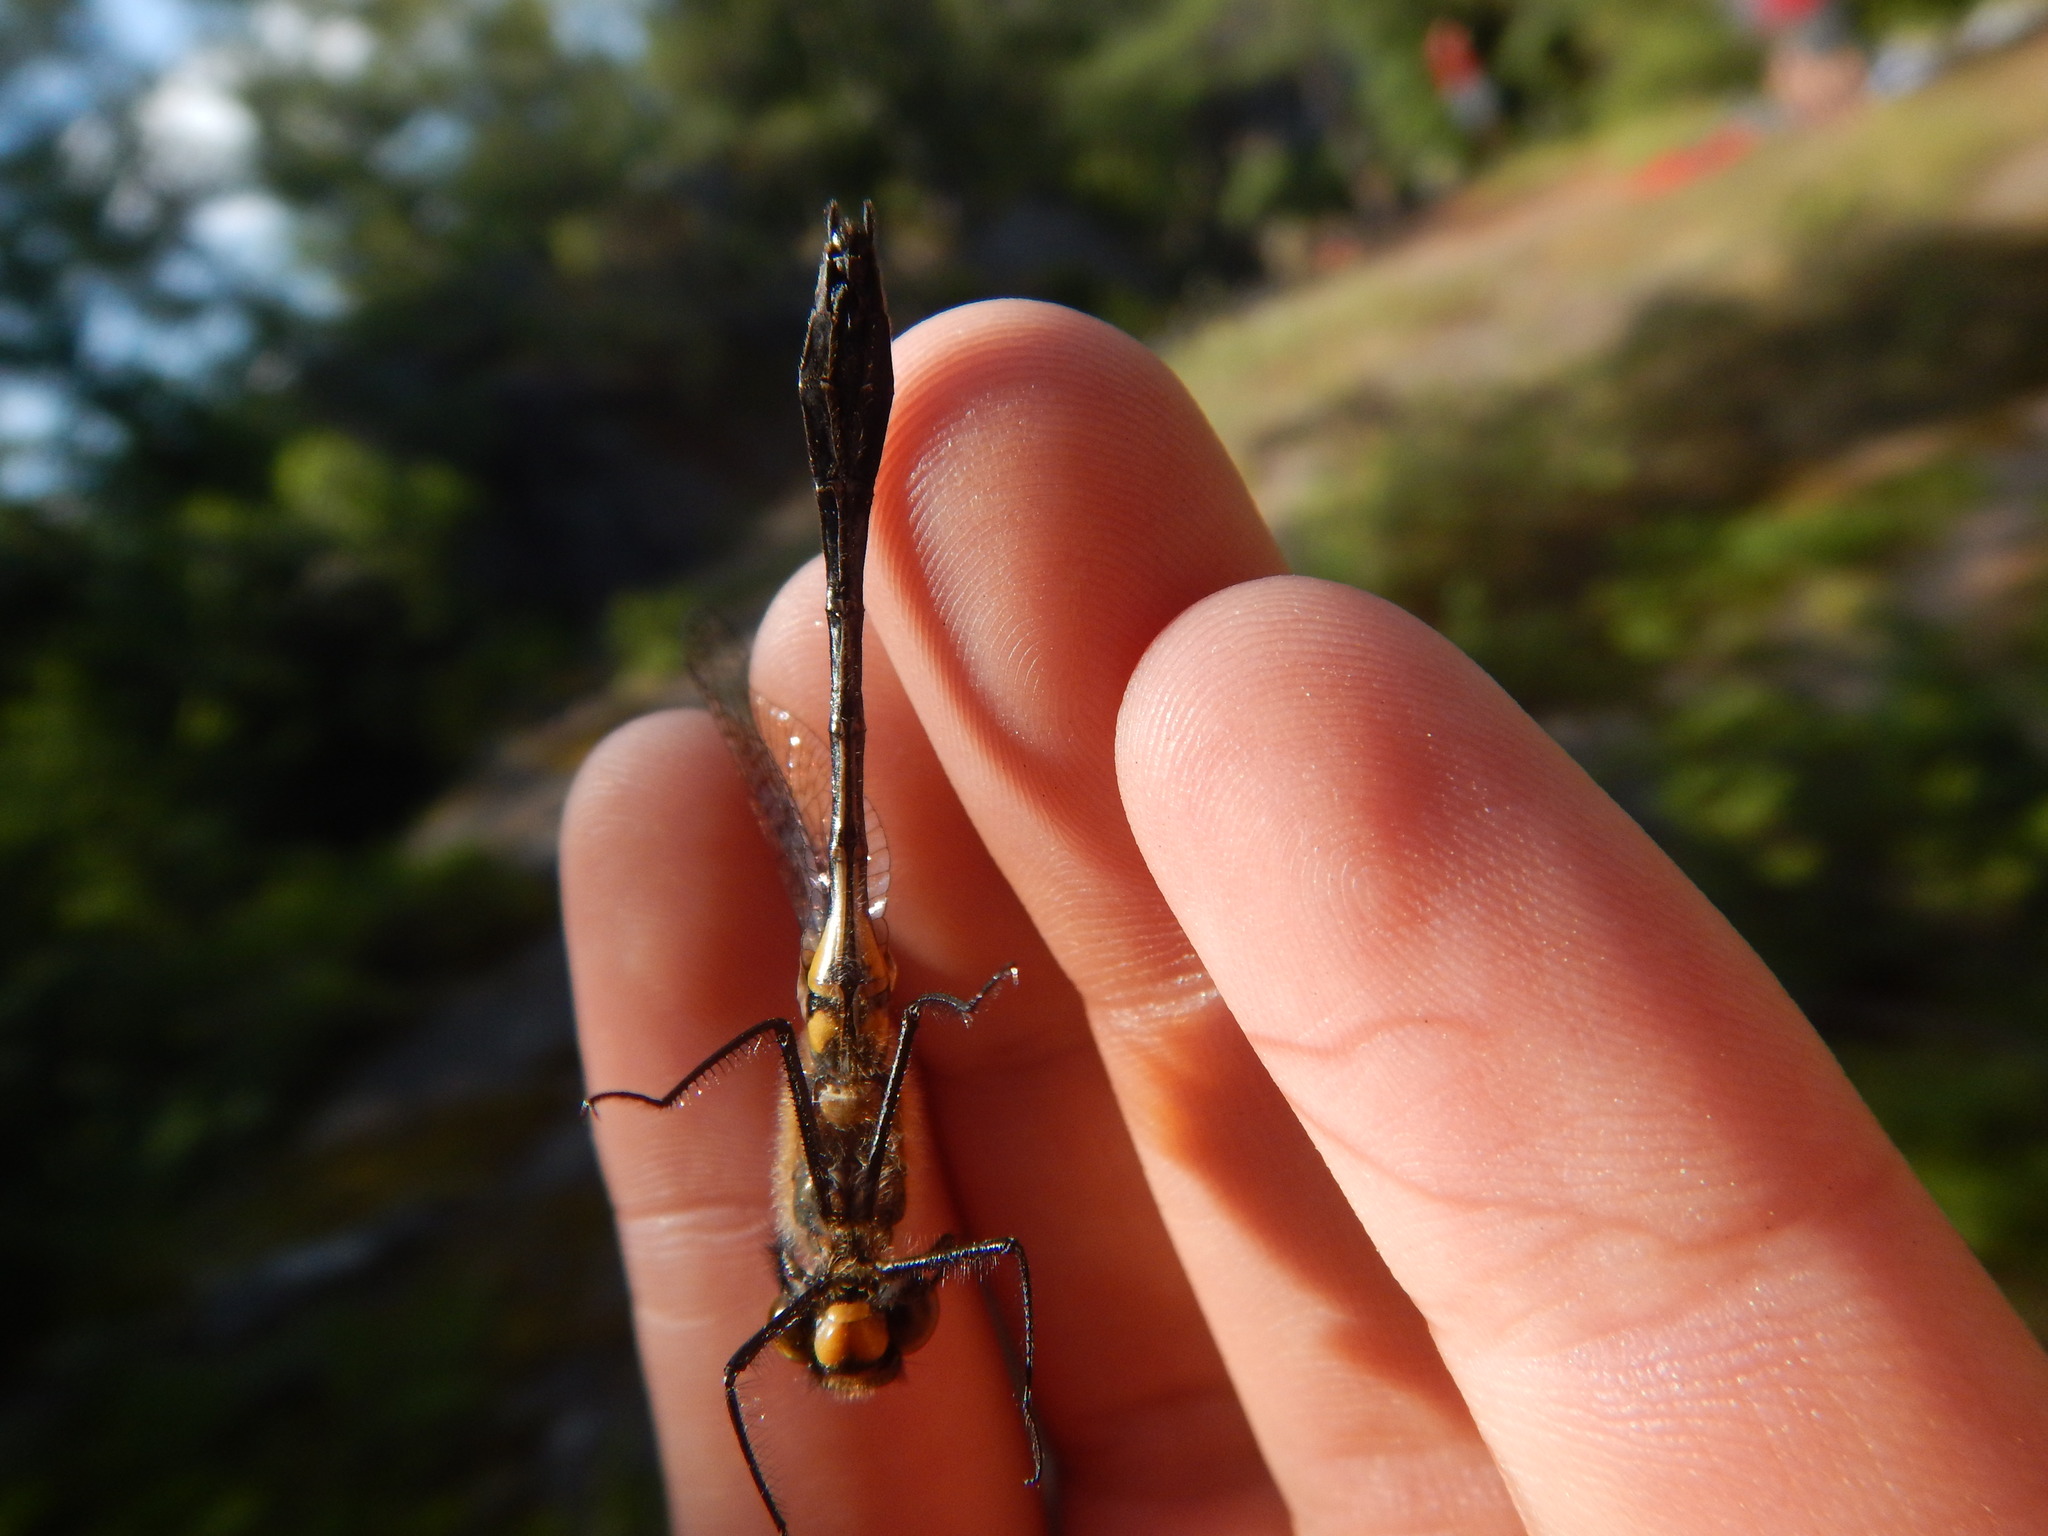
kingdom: Animalia
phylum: Arthropoda
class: Insecta
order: Odonata
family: Corduliidae
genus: Dorocordulia
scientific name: Dorocordulia libera
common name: Racket-tailed emerald
